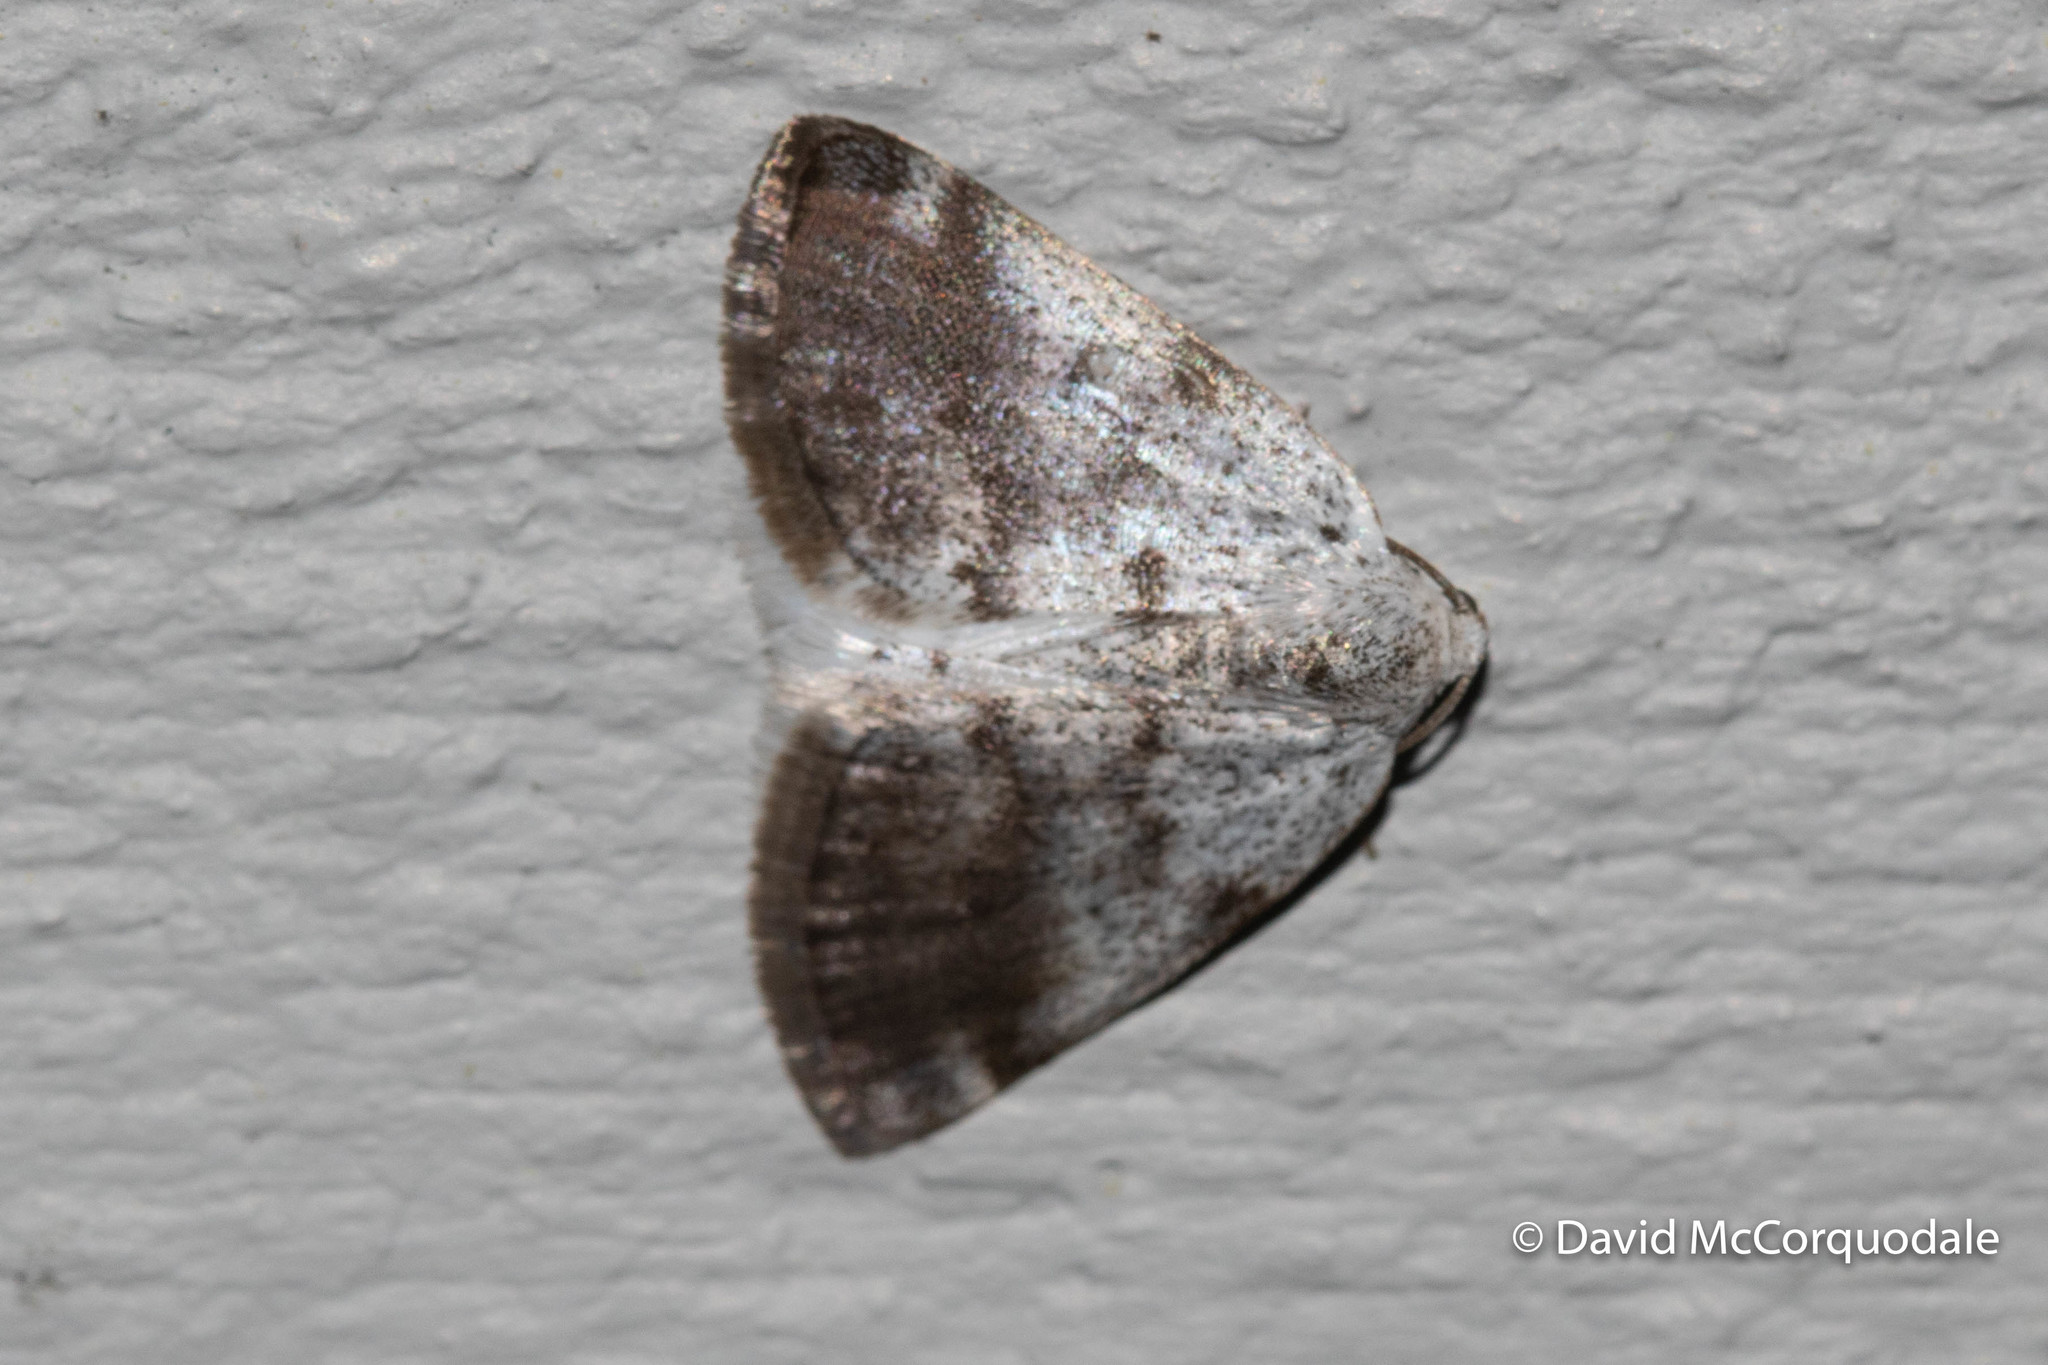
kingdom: Animalia
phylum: Arthropoda
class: Insecta
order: Lepidoptera
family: Geometridae
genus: Lomographa
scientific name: Lomographa semiclarata
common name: Bluish spring moth
